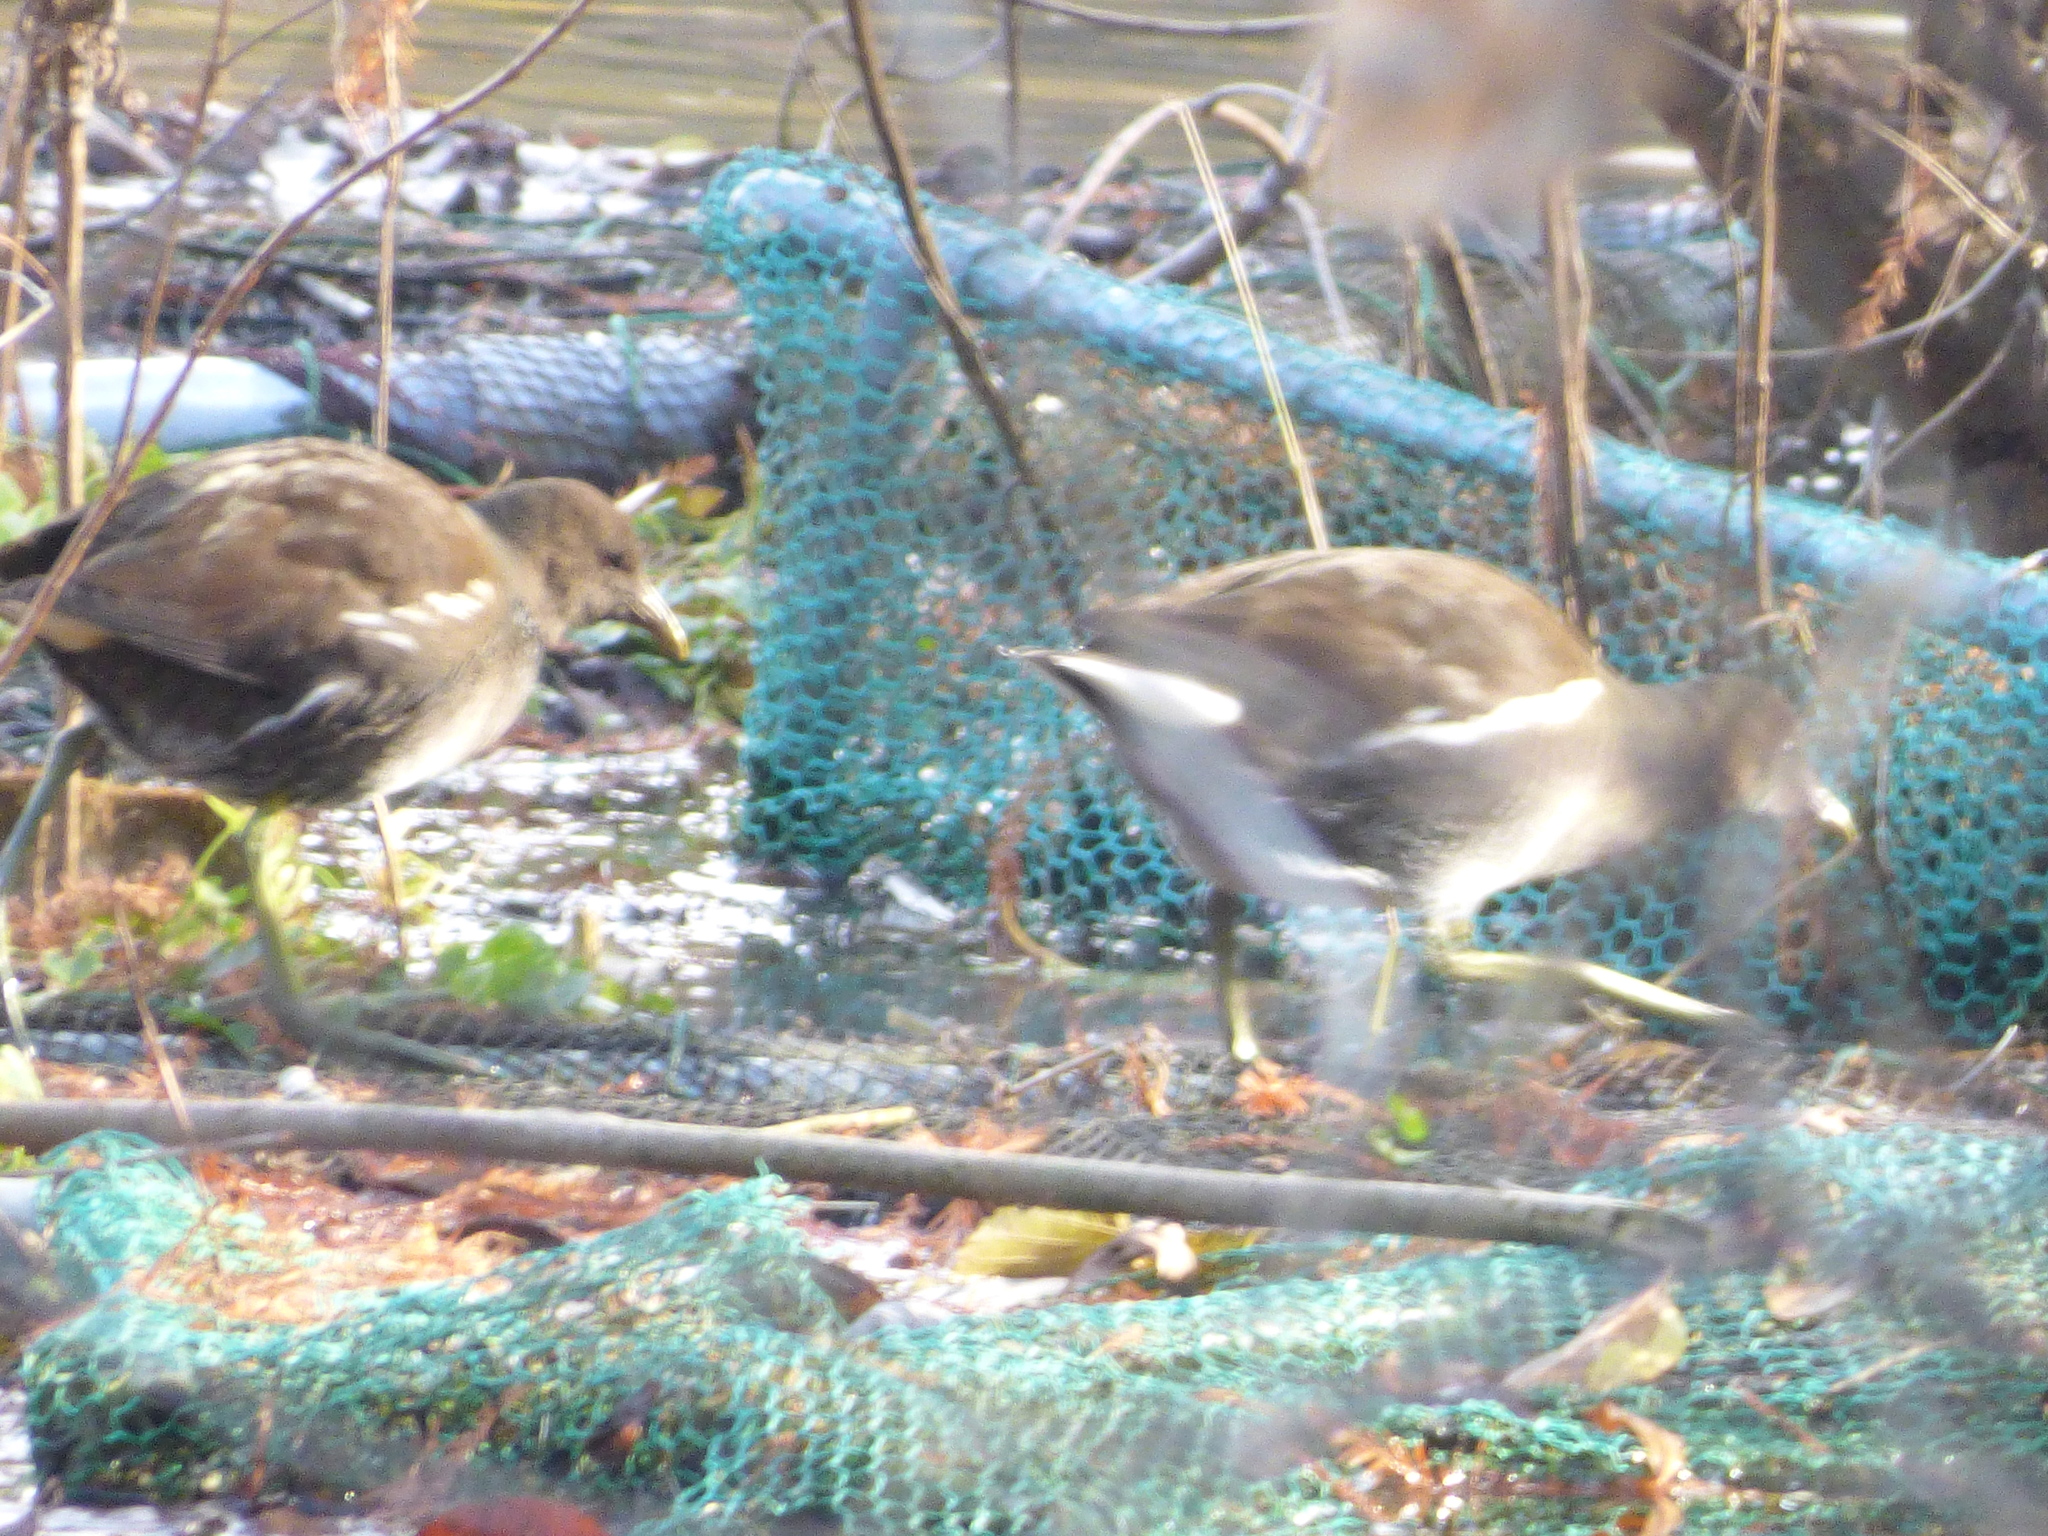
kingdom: Animalia
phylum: Chordata
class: Aves
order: Gruiformes
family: Rallidae
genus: Gallinula
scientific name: Gallinula chloropus
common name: Common moorhen
